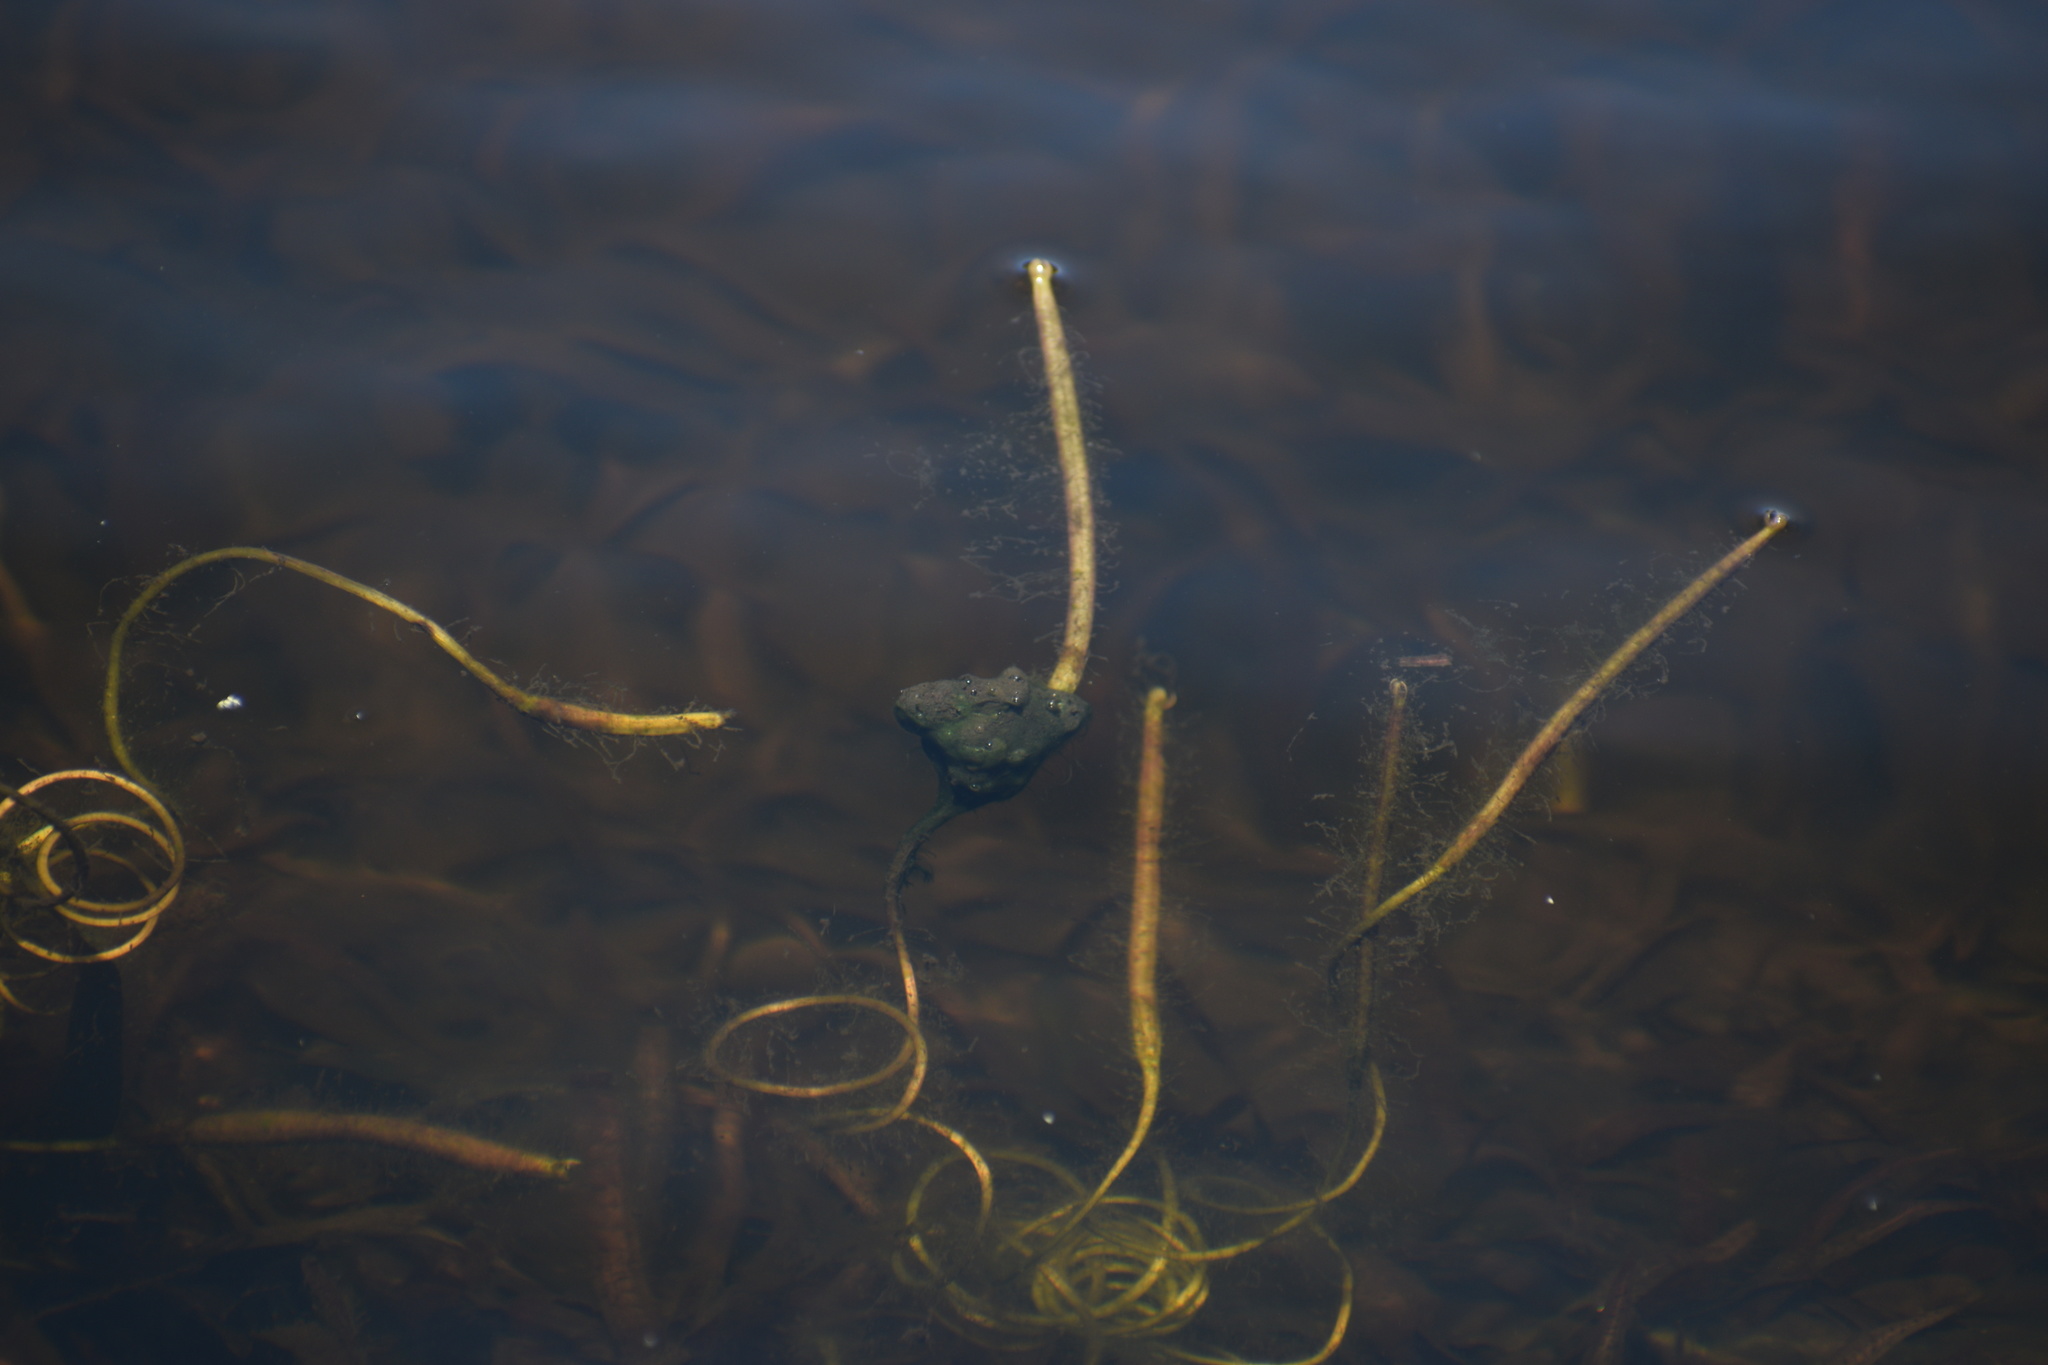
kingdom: Plantae
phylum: Tracheophyta
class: Liliopsida
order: Alismatales
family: Hydrocharitaceae
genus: Vallisneria
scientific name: Vallisneria americana
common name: American eelgrass
